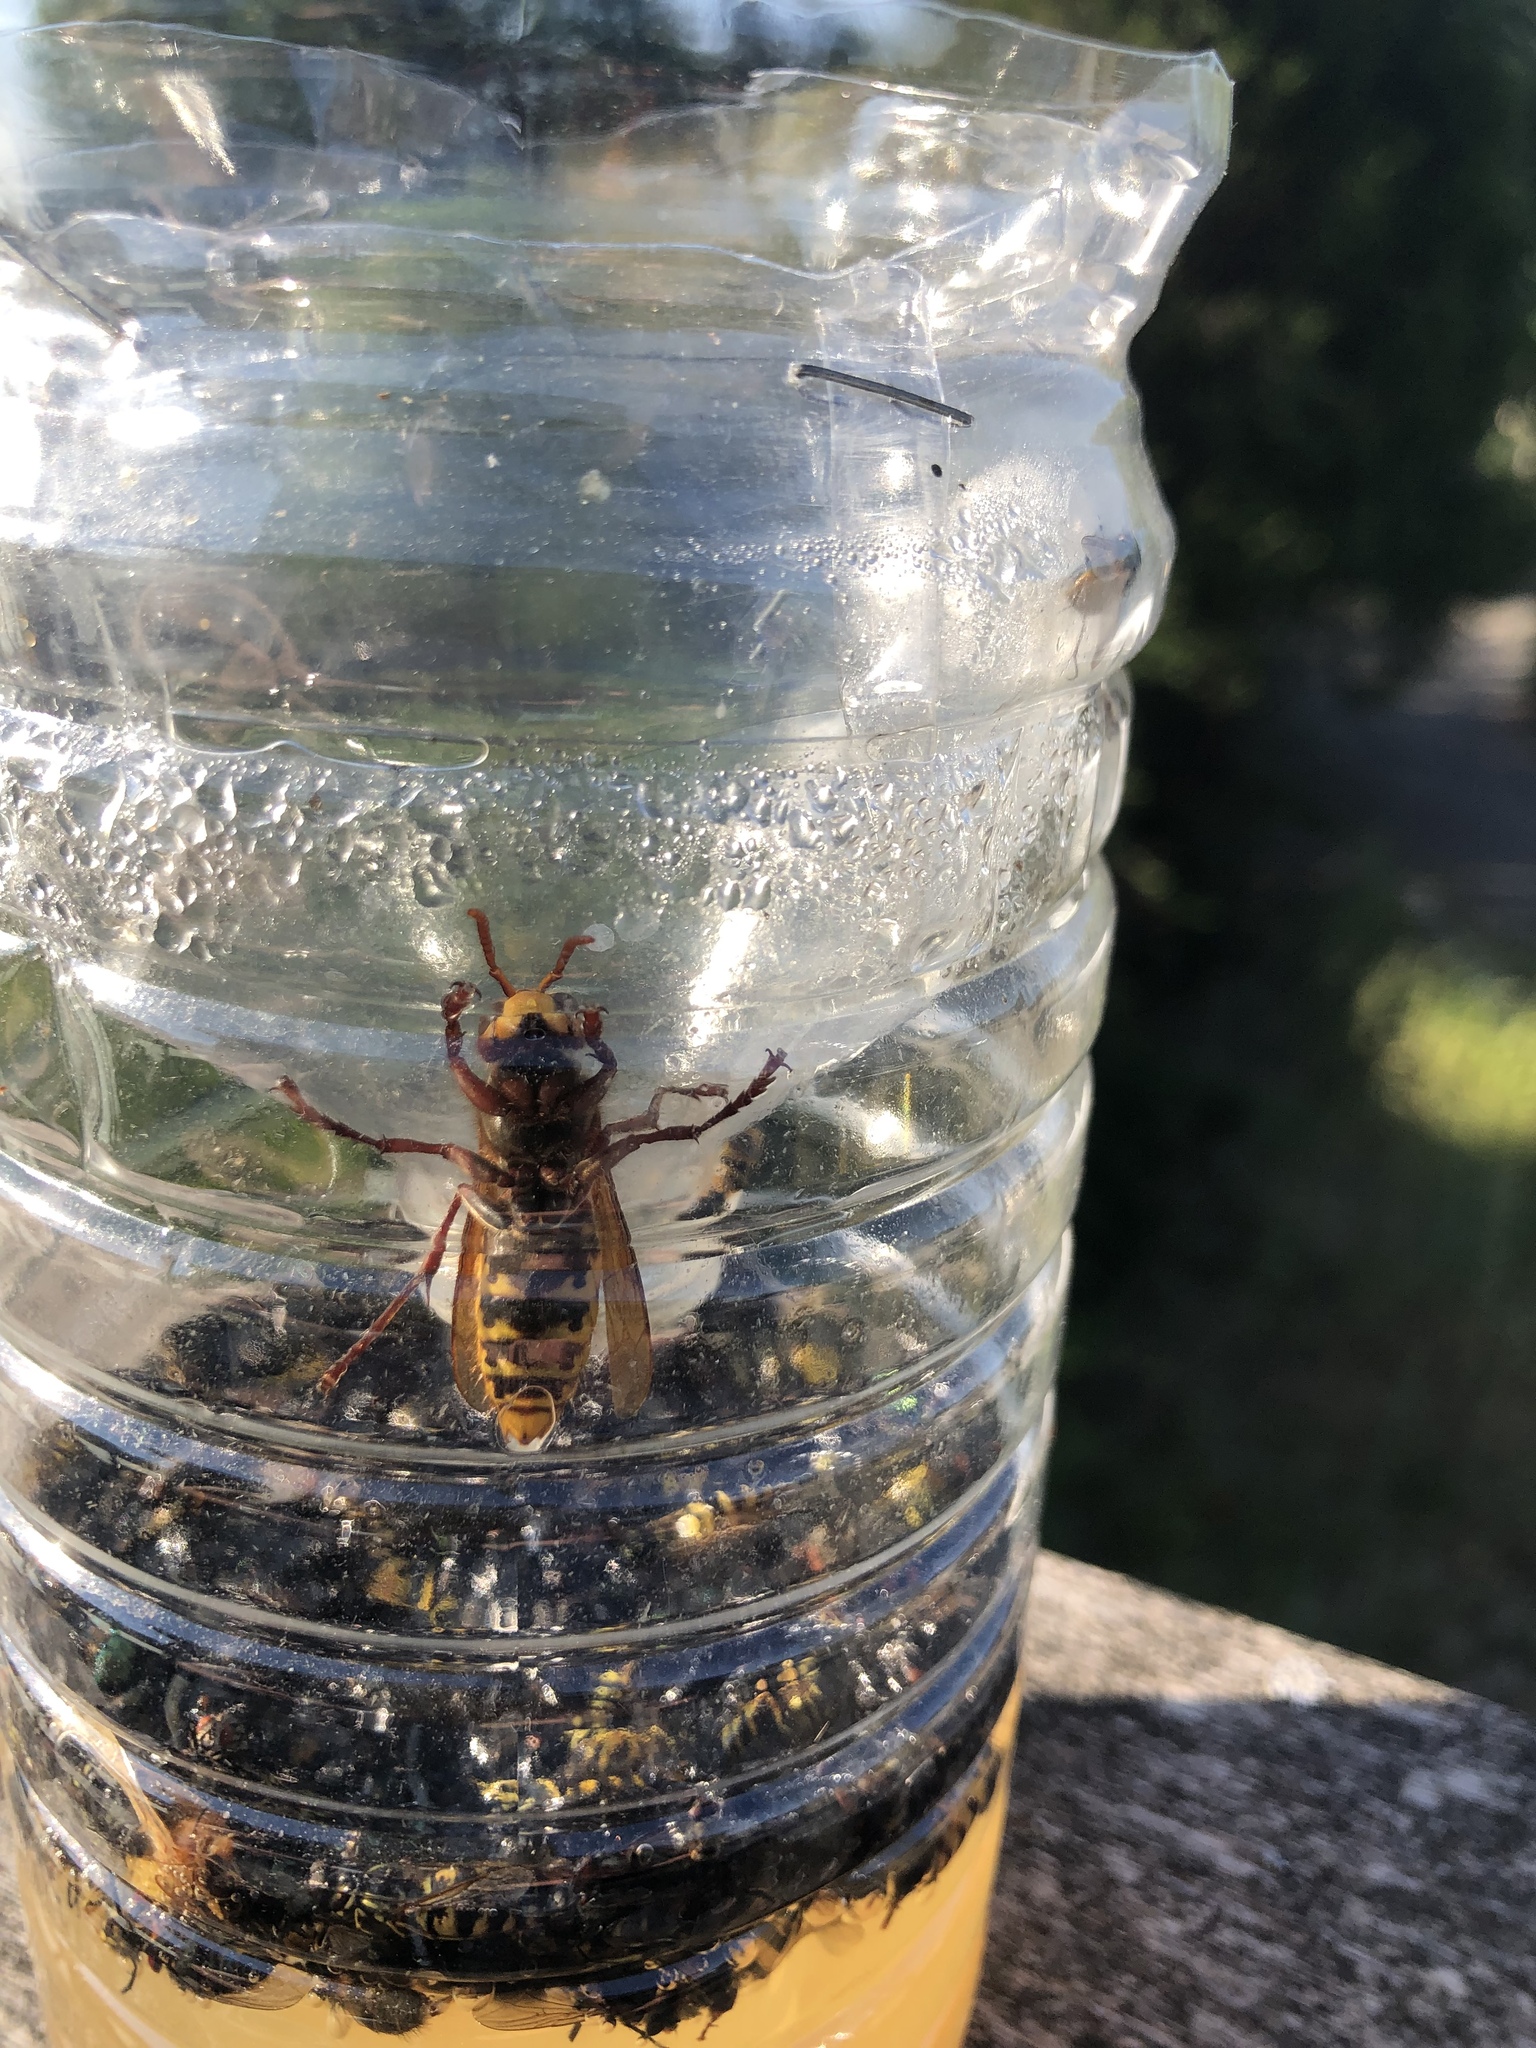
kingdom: Animalia
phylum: Arthropoda
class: Insecta
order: Hymenoptera
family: Vespidae
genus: Vespa
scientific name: Vespa crabro
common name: Hornet
